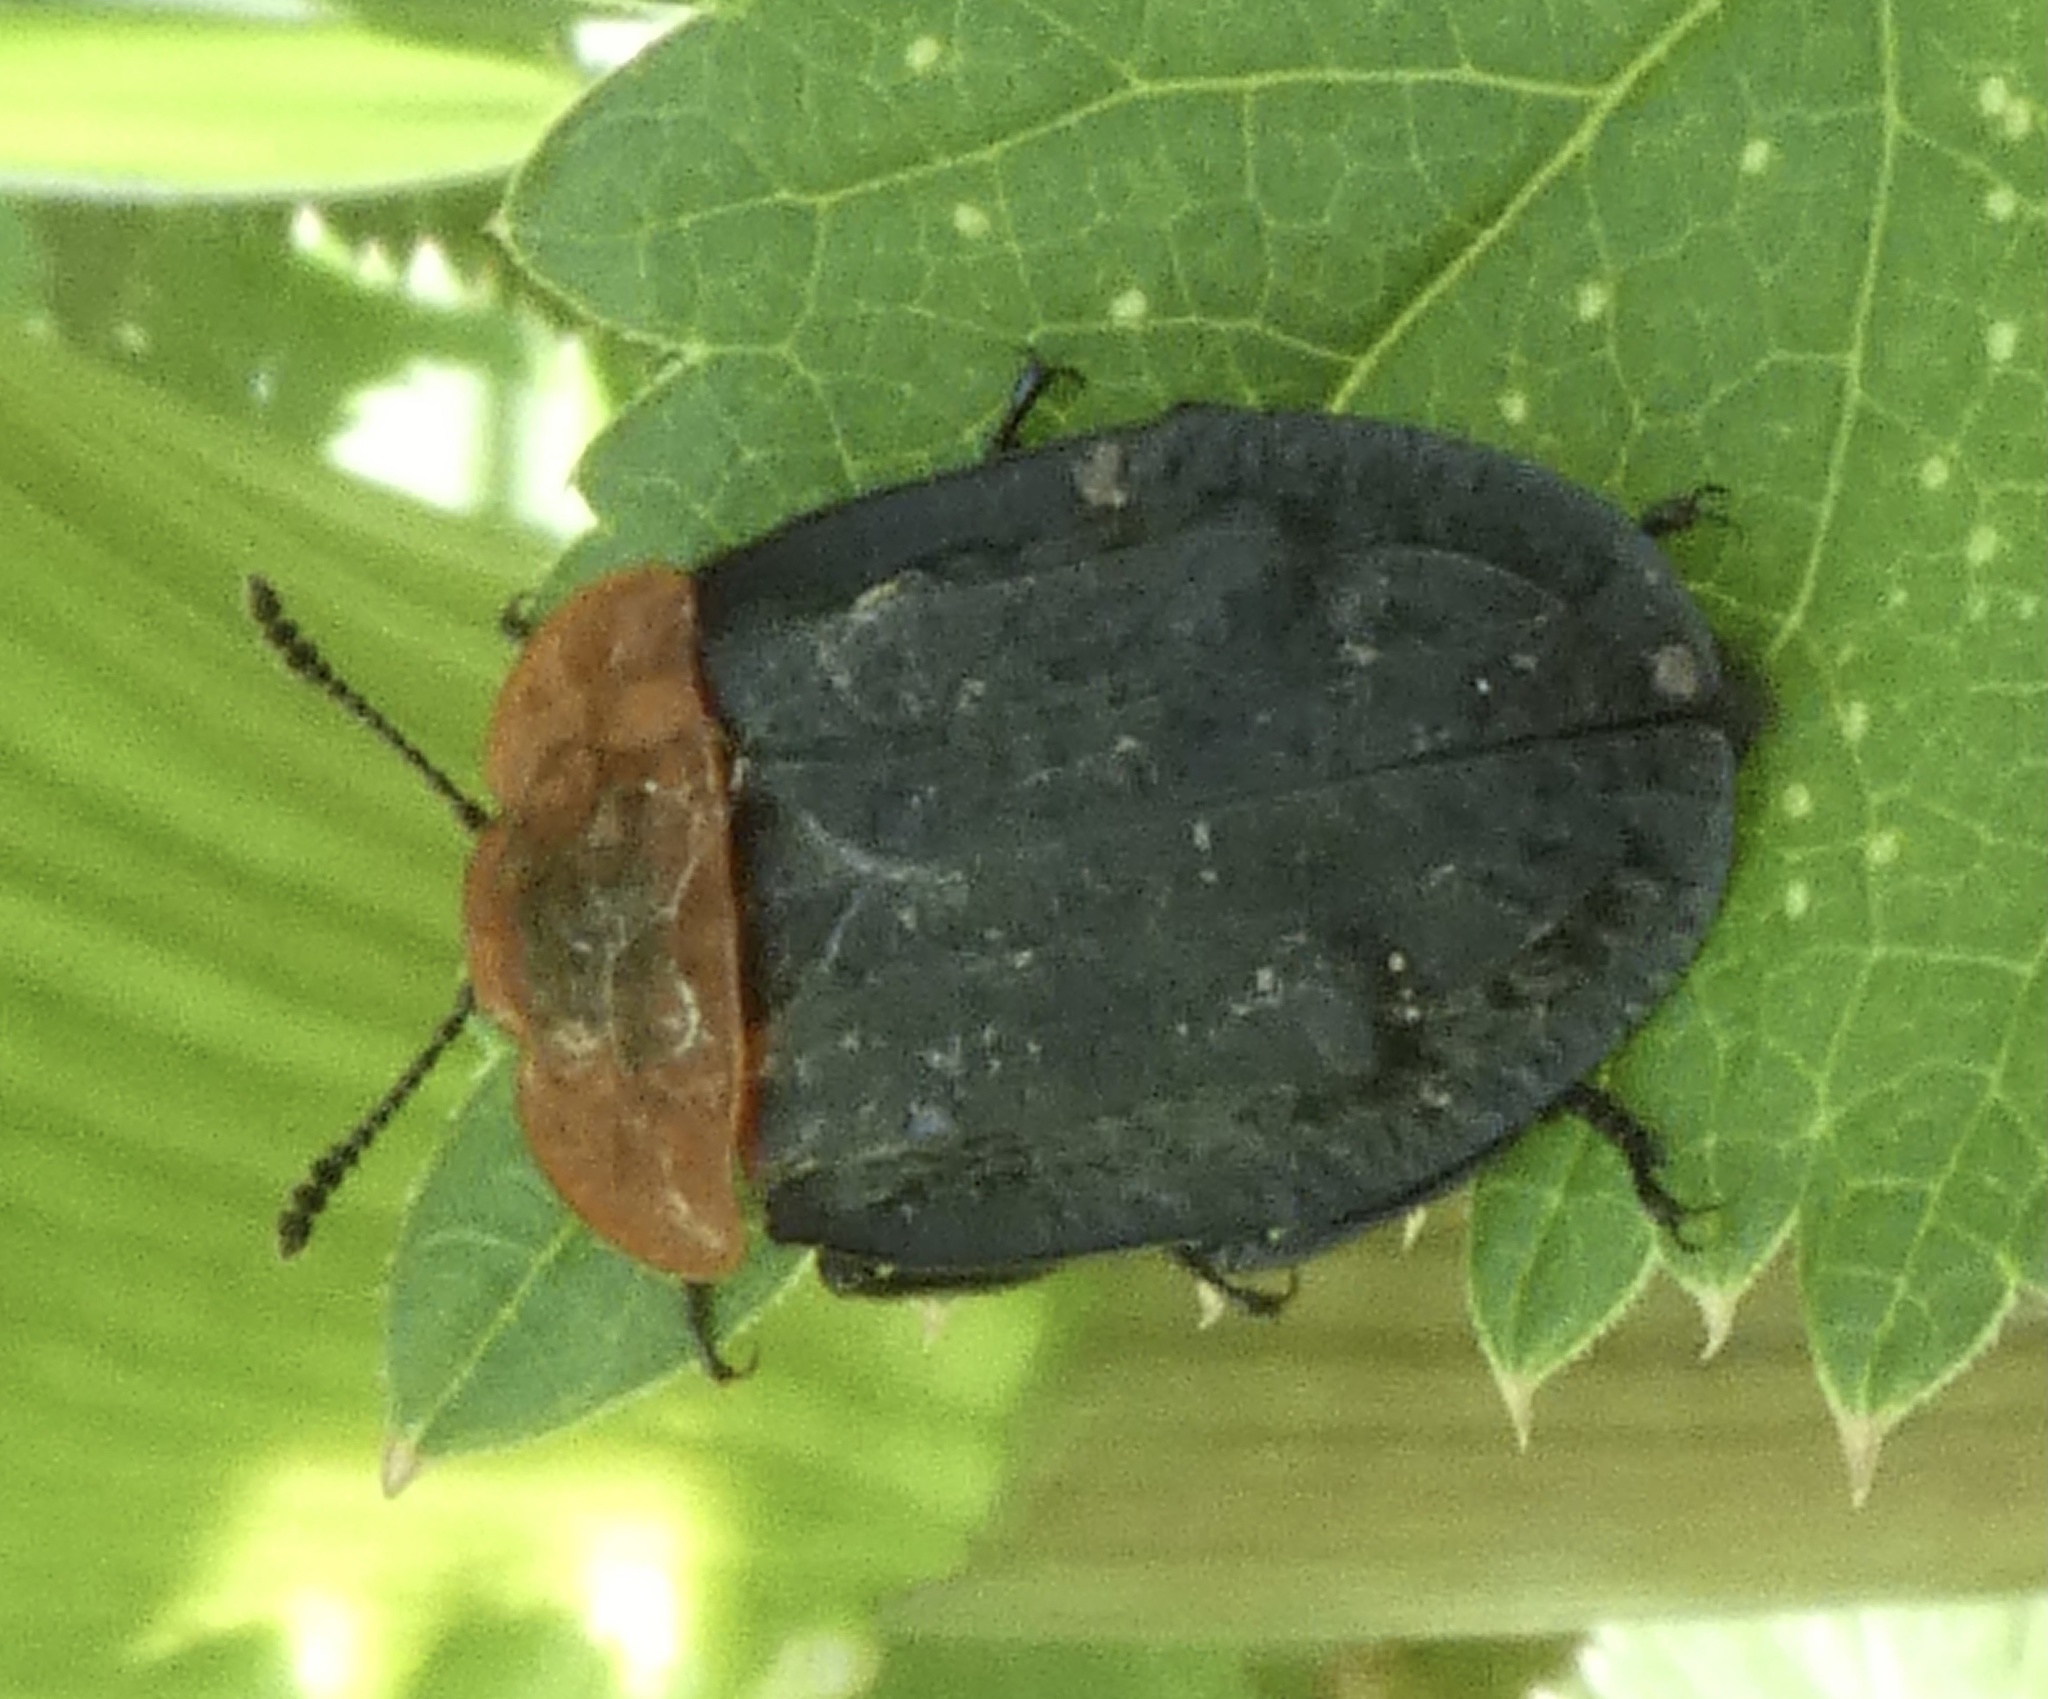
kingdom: Animalia
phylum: Arthropoda
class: Insecta
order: Coleoptera
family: Staphylinidae
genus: Oiceoptoma
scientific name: Oiceoptoma thoracicum
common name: Red-breasted carrion beetle
